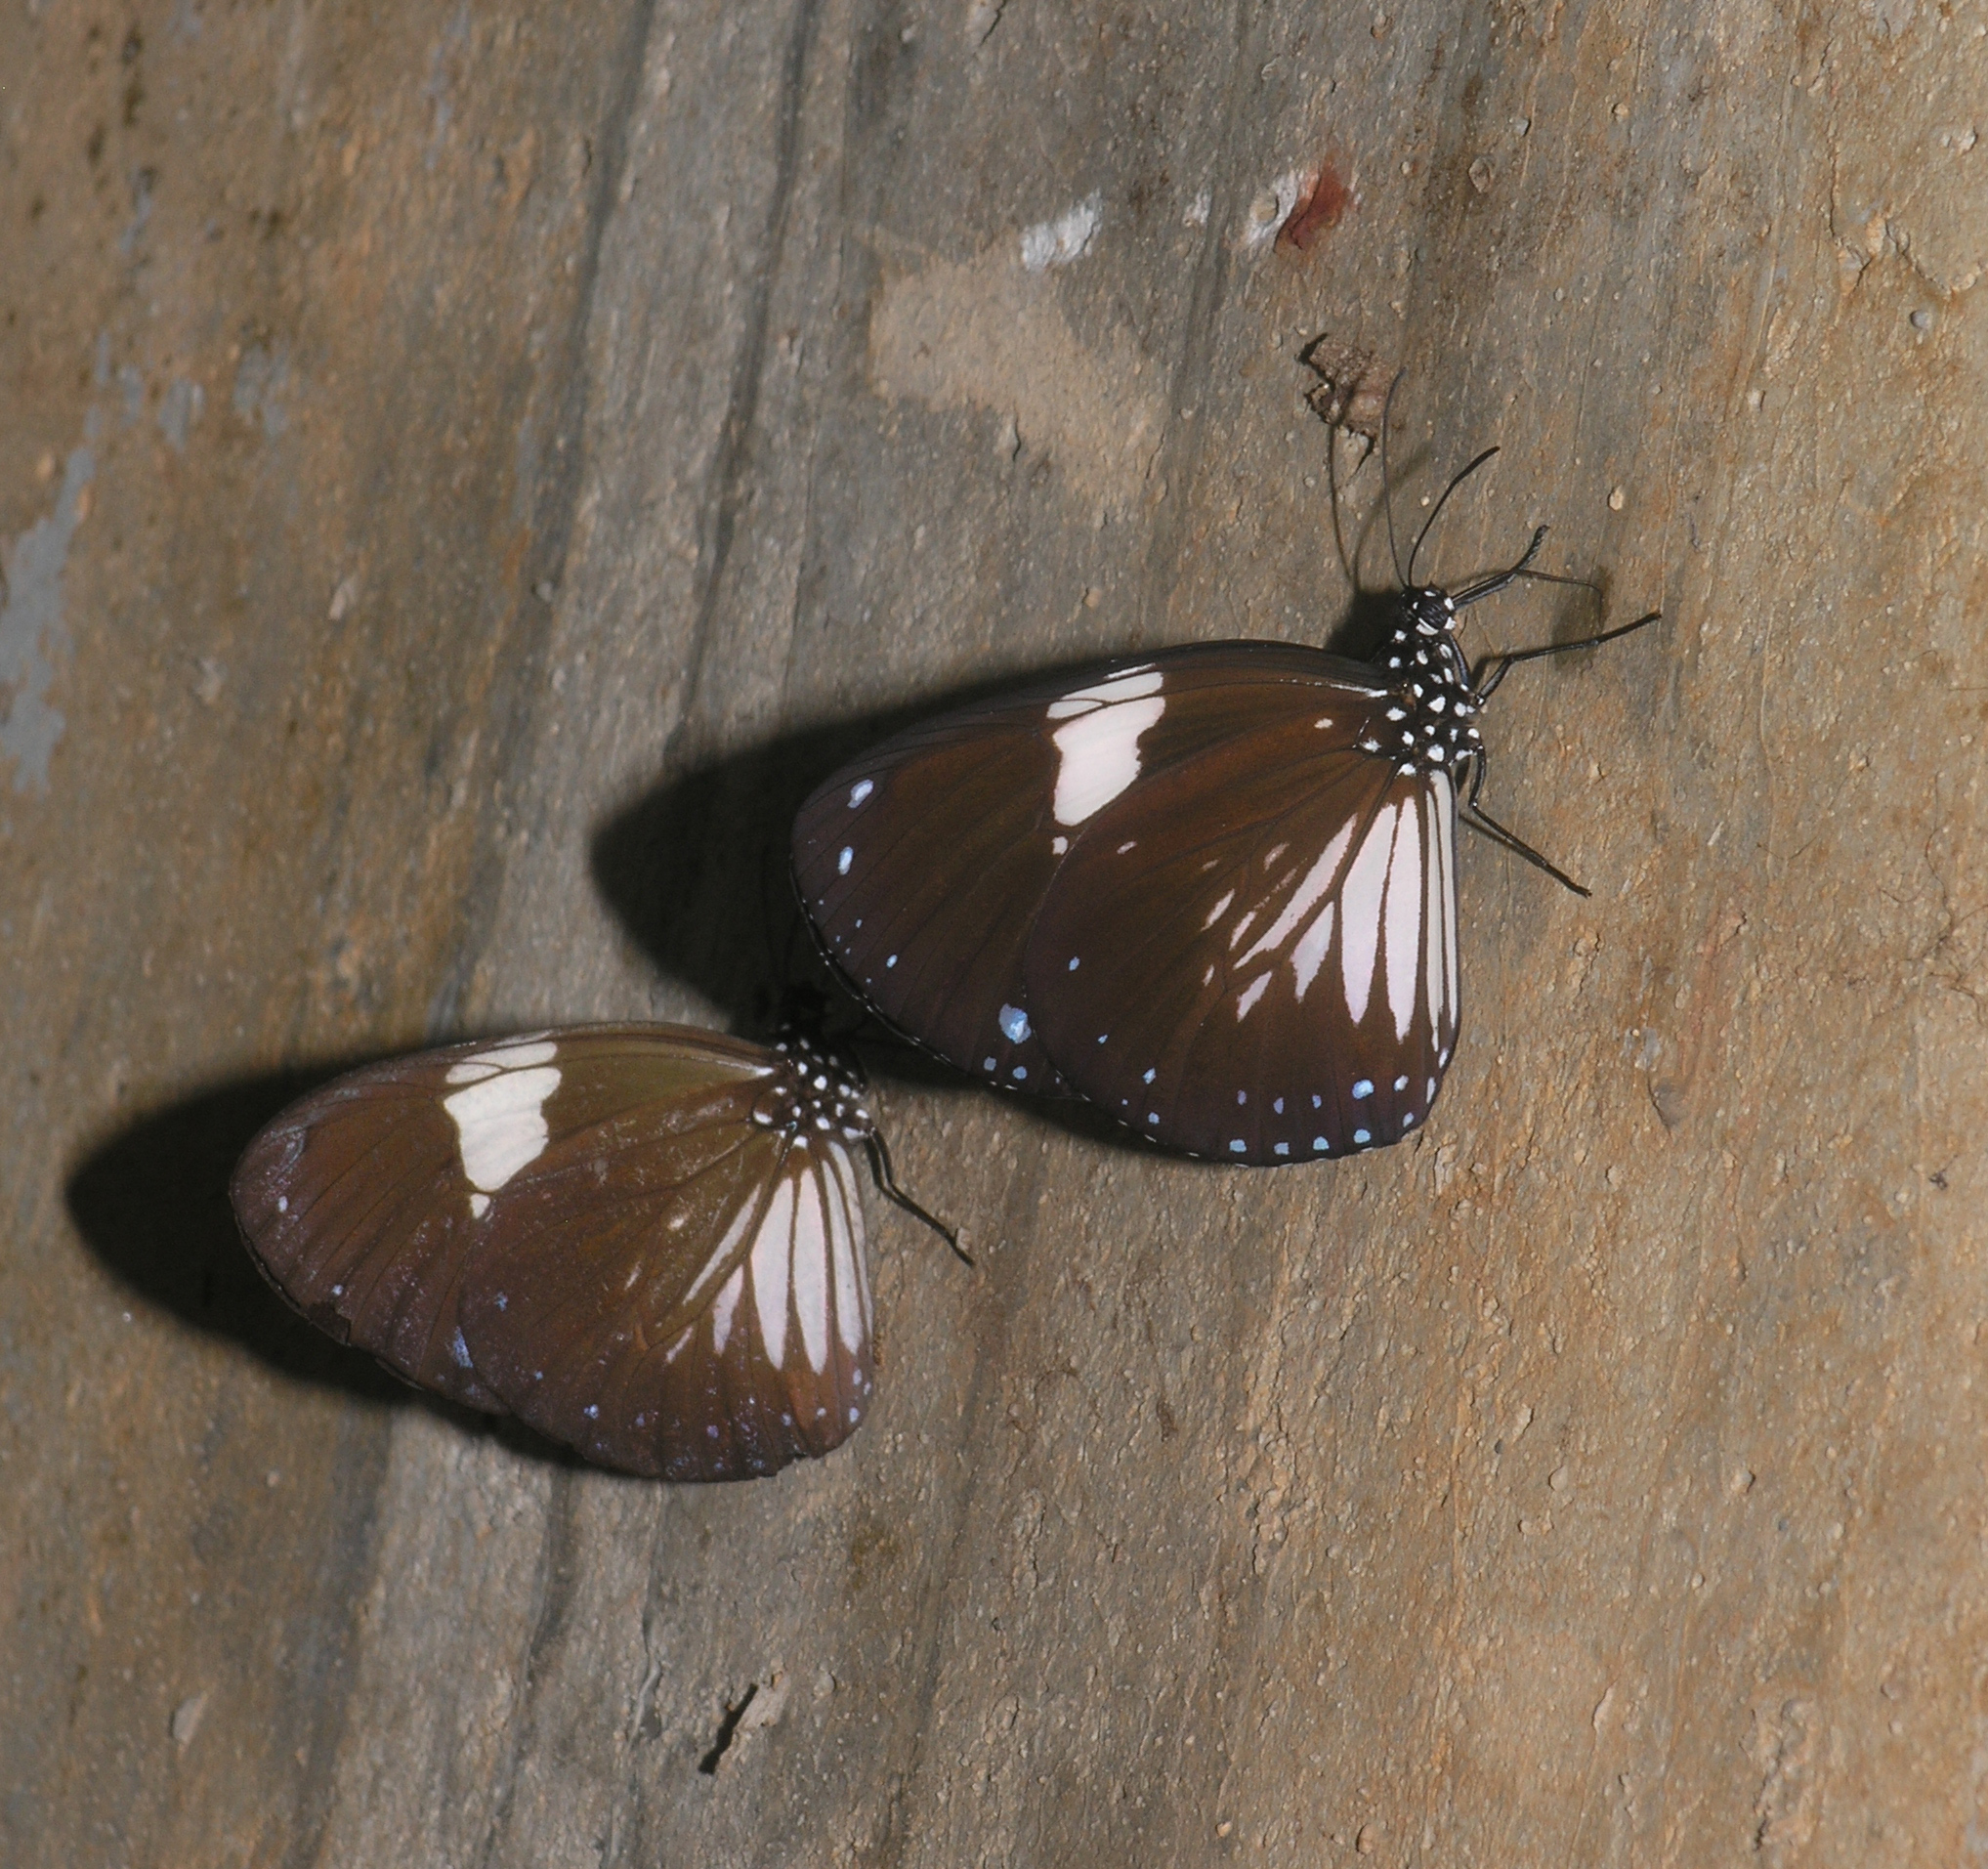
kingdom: Animalia
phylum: Arthropoda
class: Insecta
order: Lepidoptera
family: Nymphalidae
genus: Euploea
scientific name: Euploea radamanthus
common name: Magpie crow butterfly
